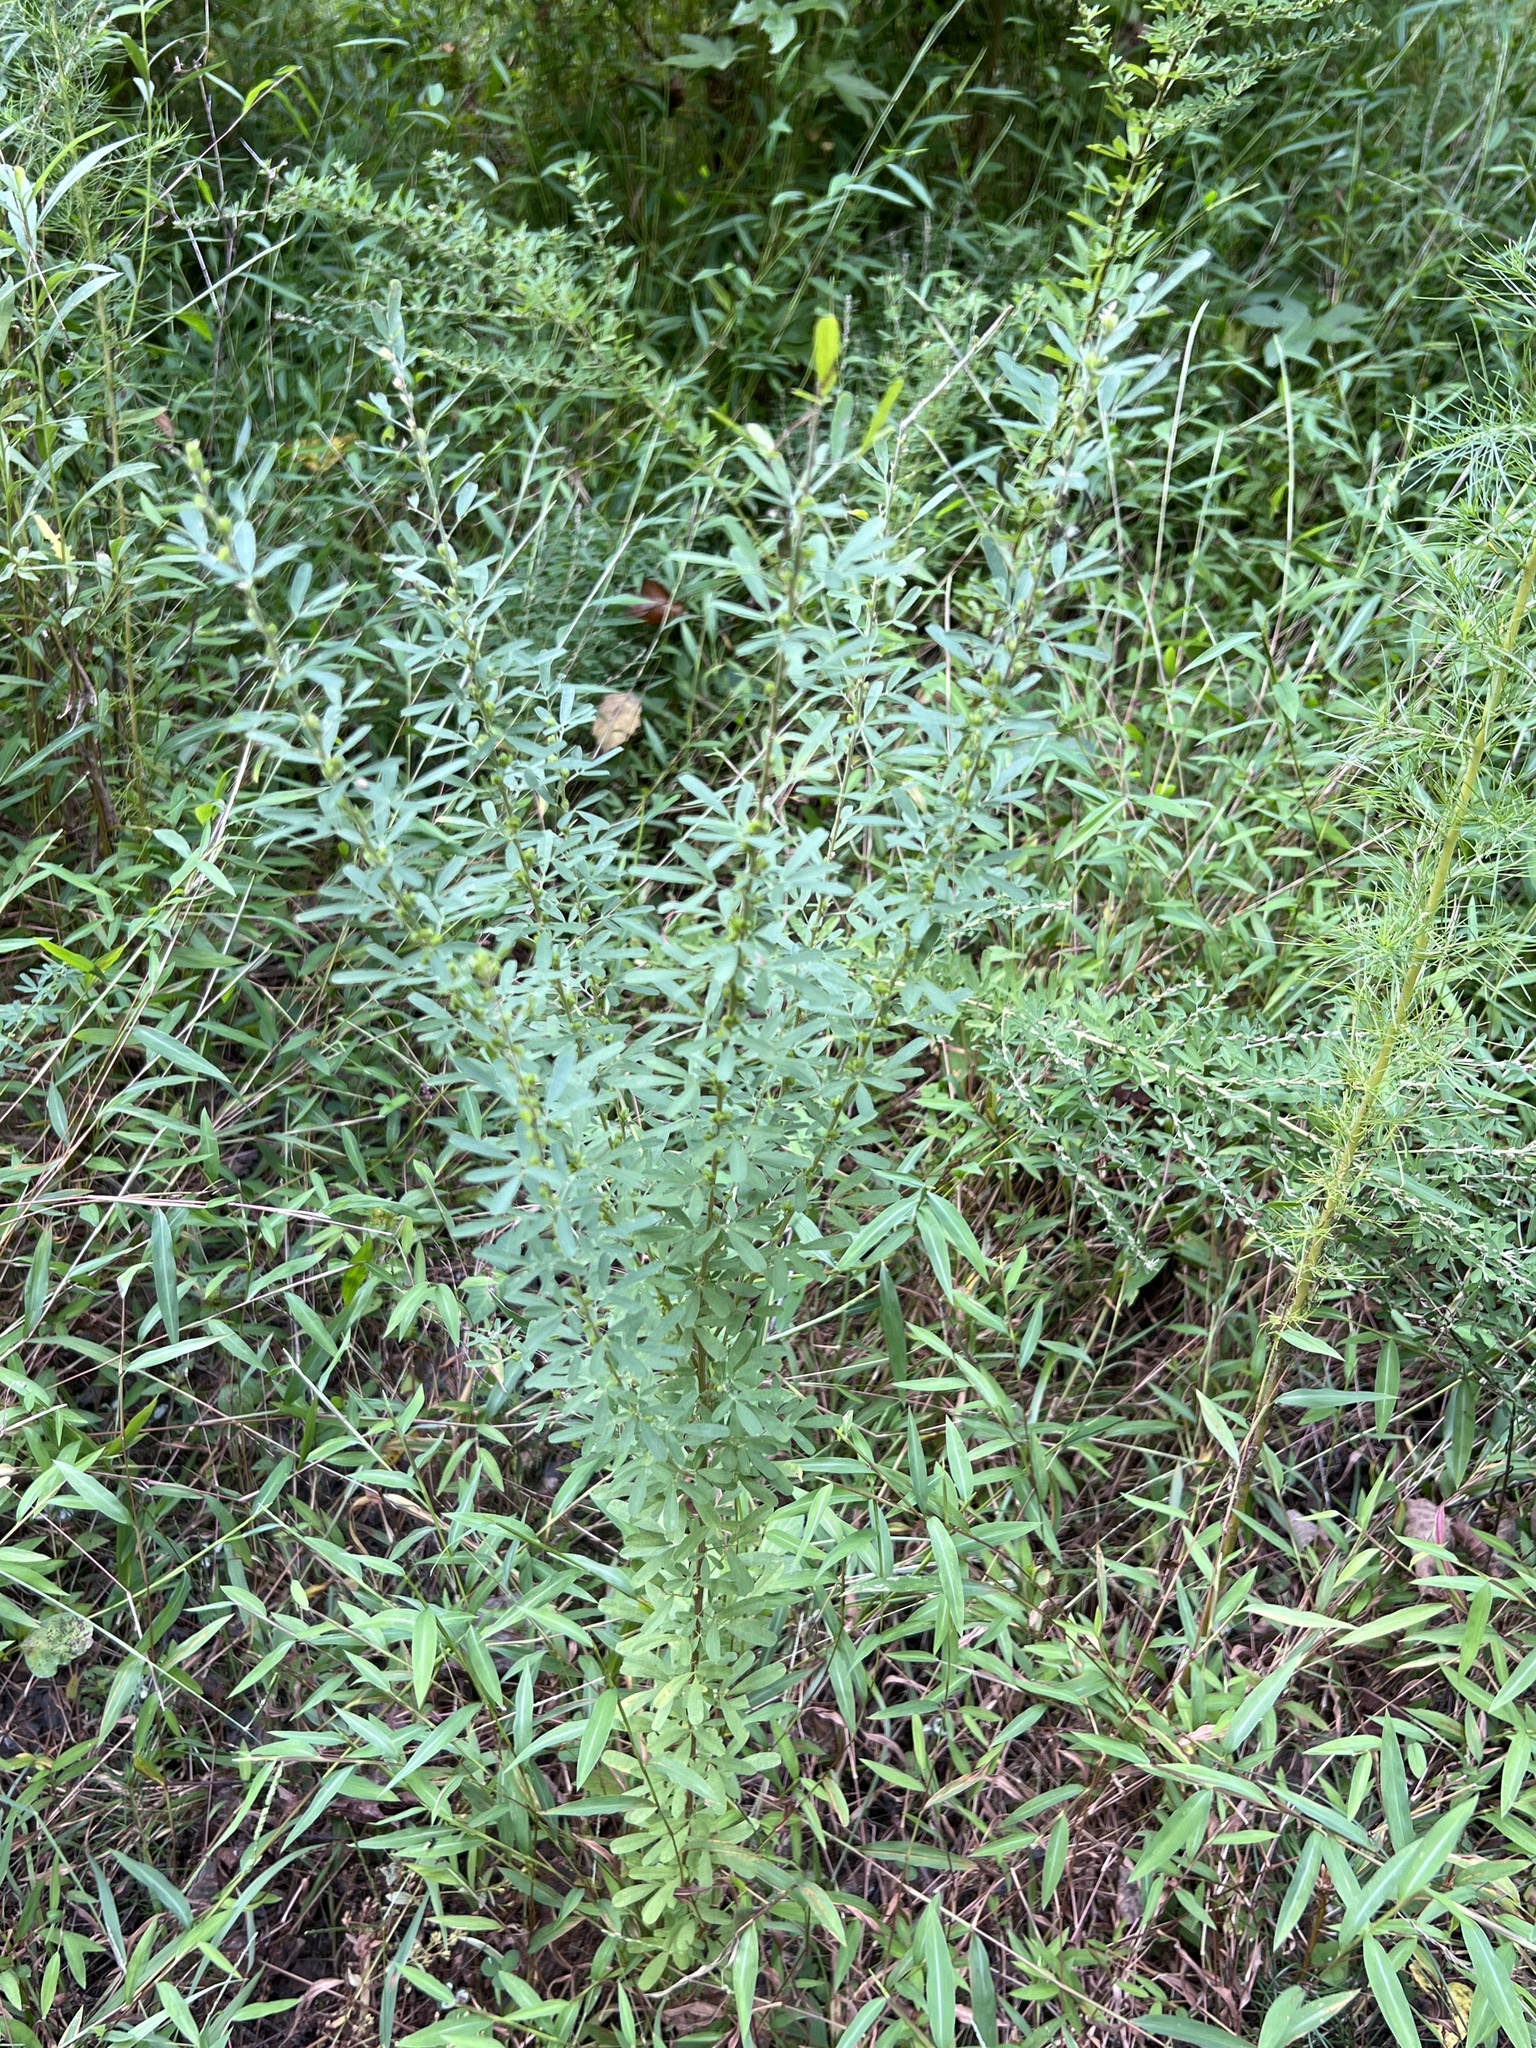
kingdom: Plantae
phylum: Tracheophyta
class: Magnoliopsida
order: Fabales
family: Fabaceae
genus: Lespedeza
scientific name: Lespedeza cuneata
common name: Chinese bush-clover
